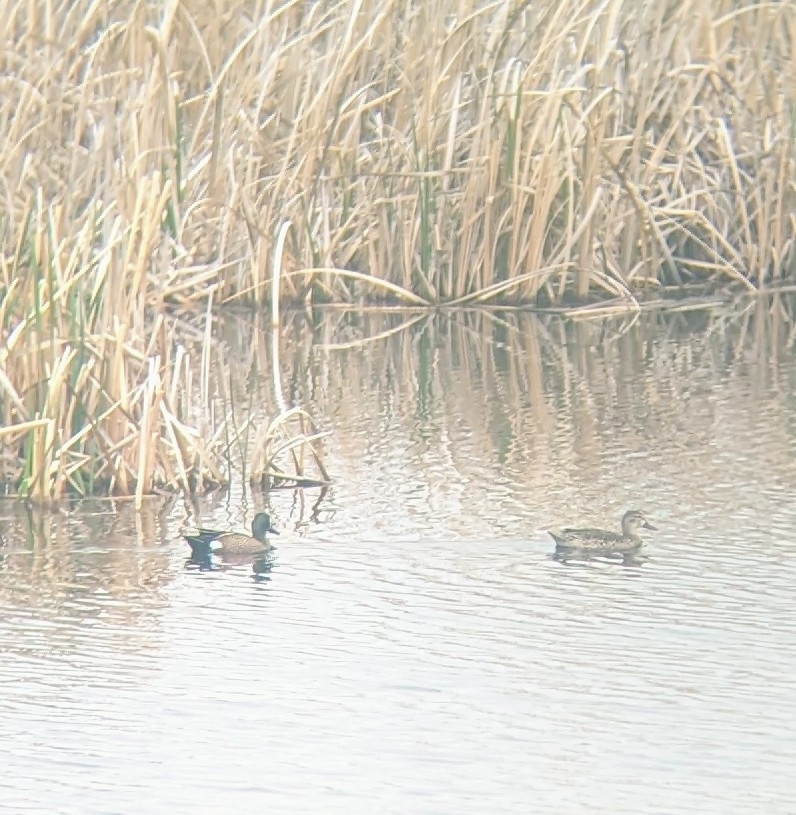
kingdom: Animalia
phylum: Chordata
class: Aves
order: Anseriformes
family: Anatidae
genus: Spatula
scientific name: Spatula discors
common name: Blue-winged teal
